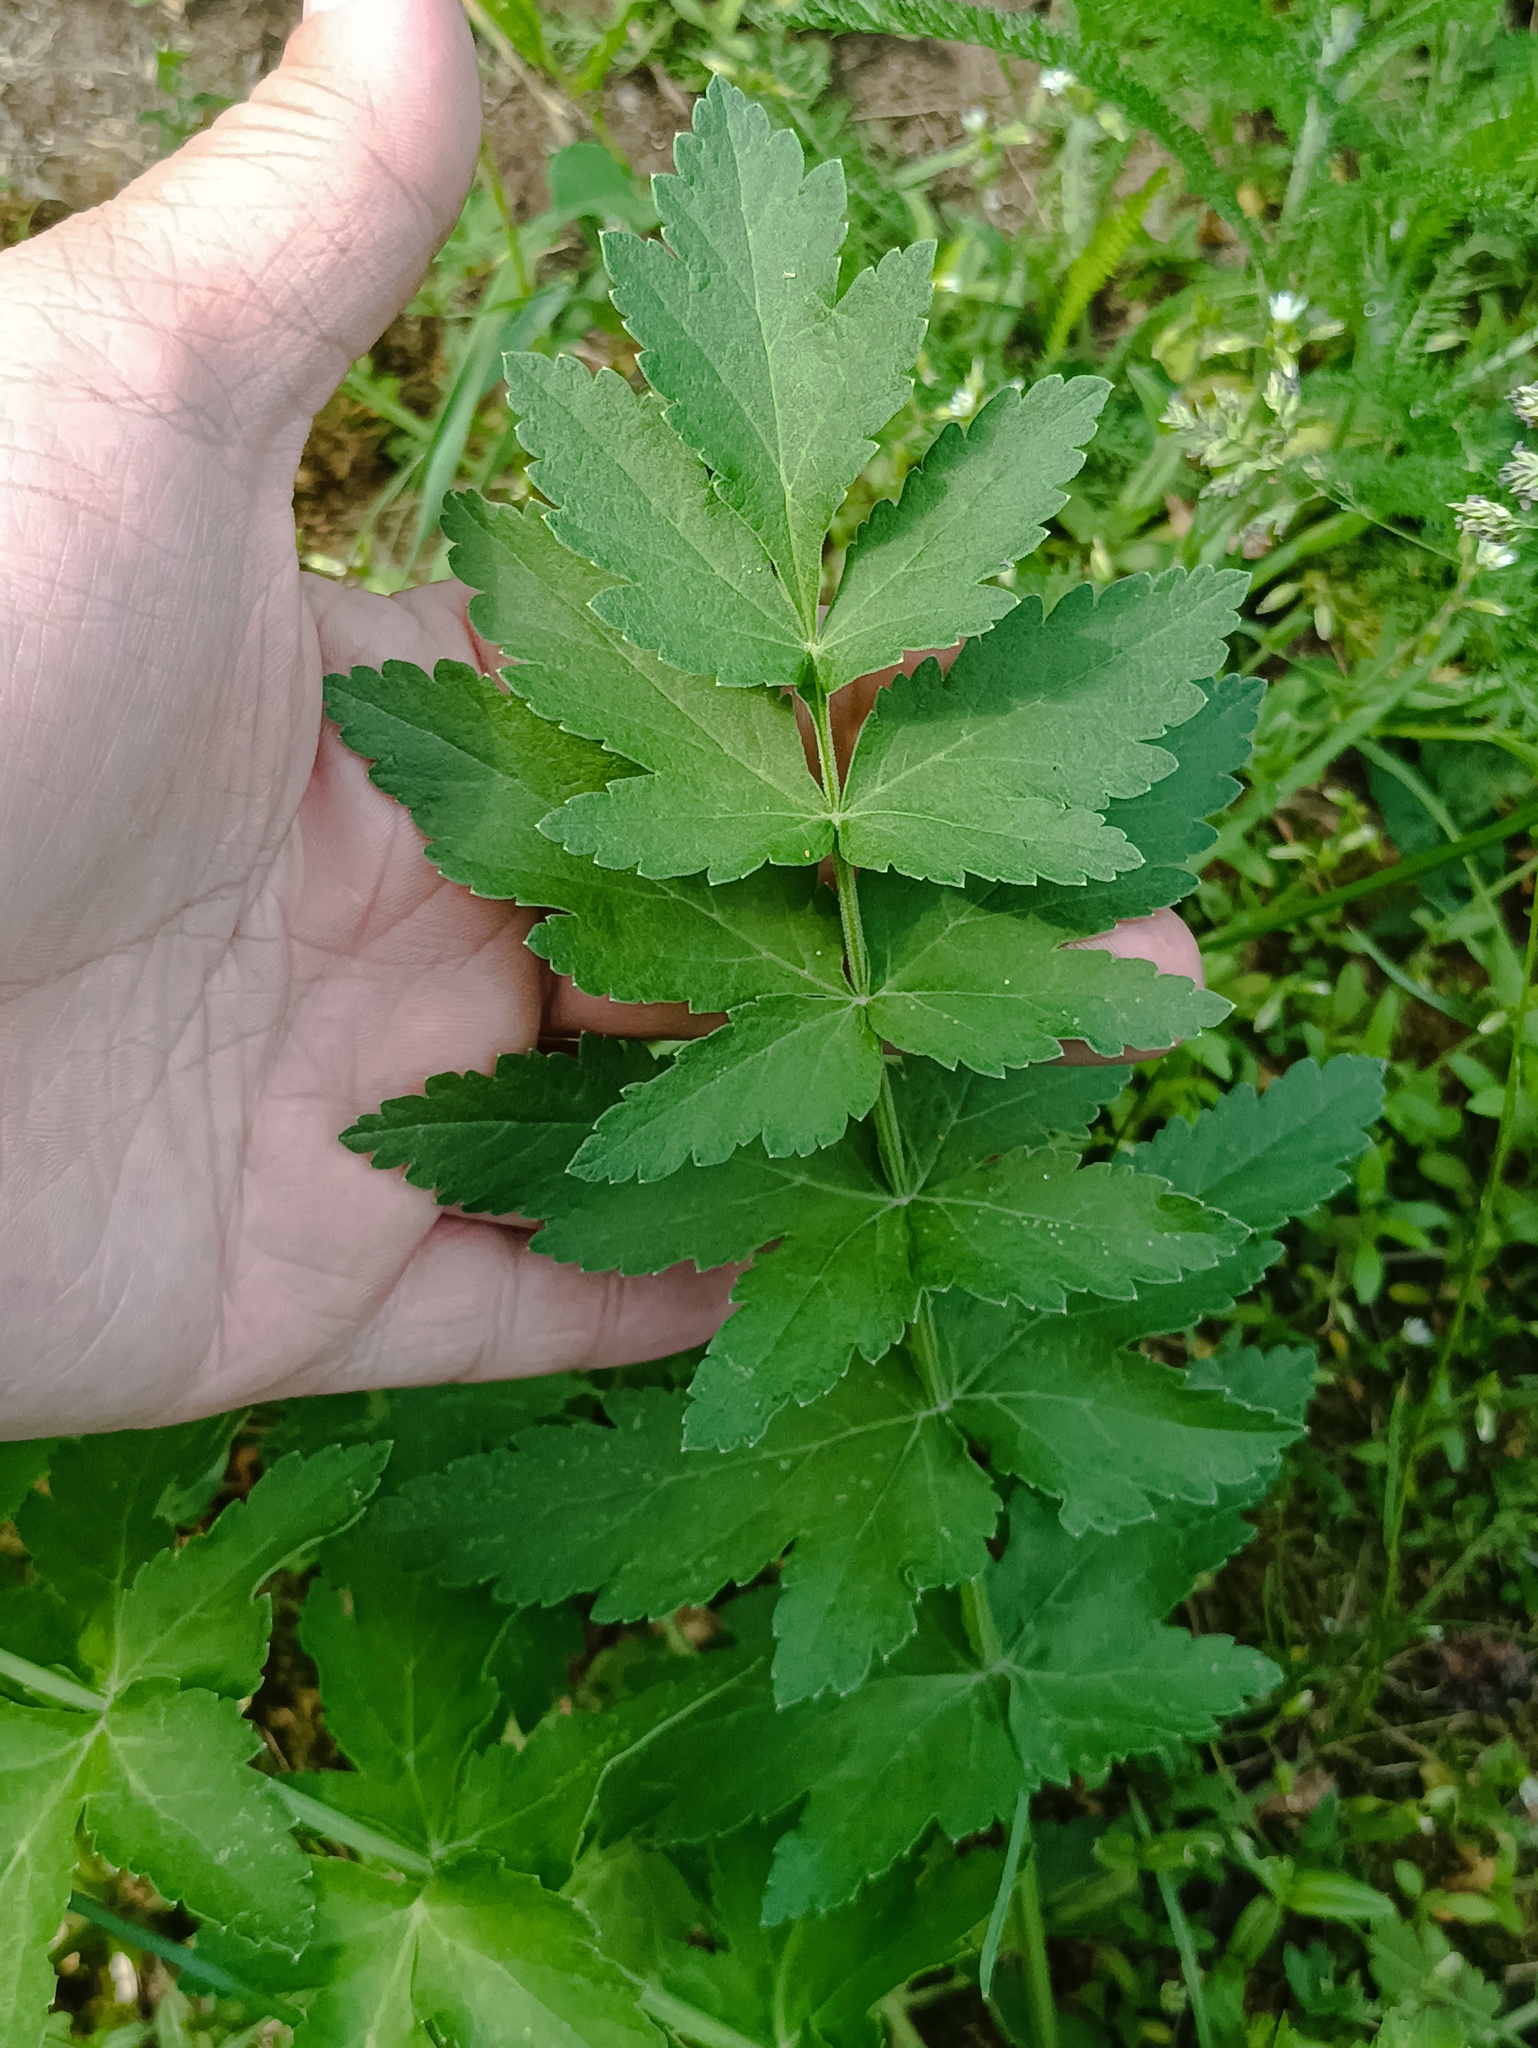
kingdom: Plantae
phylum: Tracheophyta
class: Magnoliopsida
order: Apiales
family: Apiaceae
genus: Pastinaca
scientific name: Pastinaca sativa
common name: Wild parsnip
